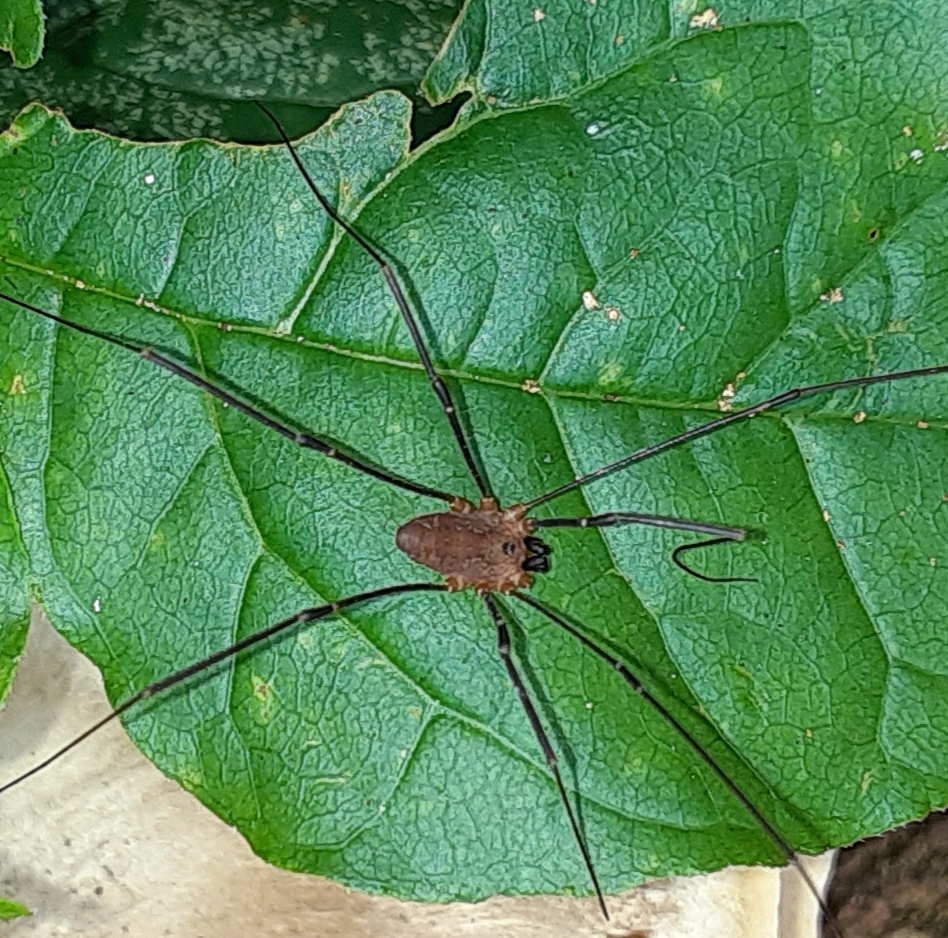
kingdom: Animalia
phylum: Arthropoda
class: Arachnida
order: Opiliones
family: Sclerosomatidae
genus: Leiobunum
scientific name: Leiobunum calcar
